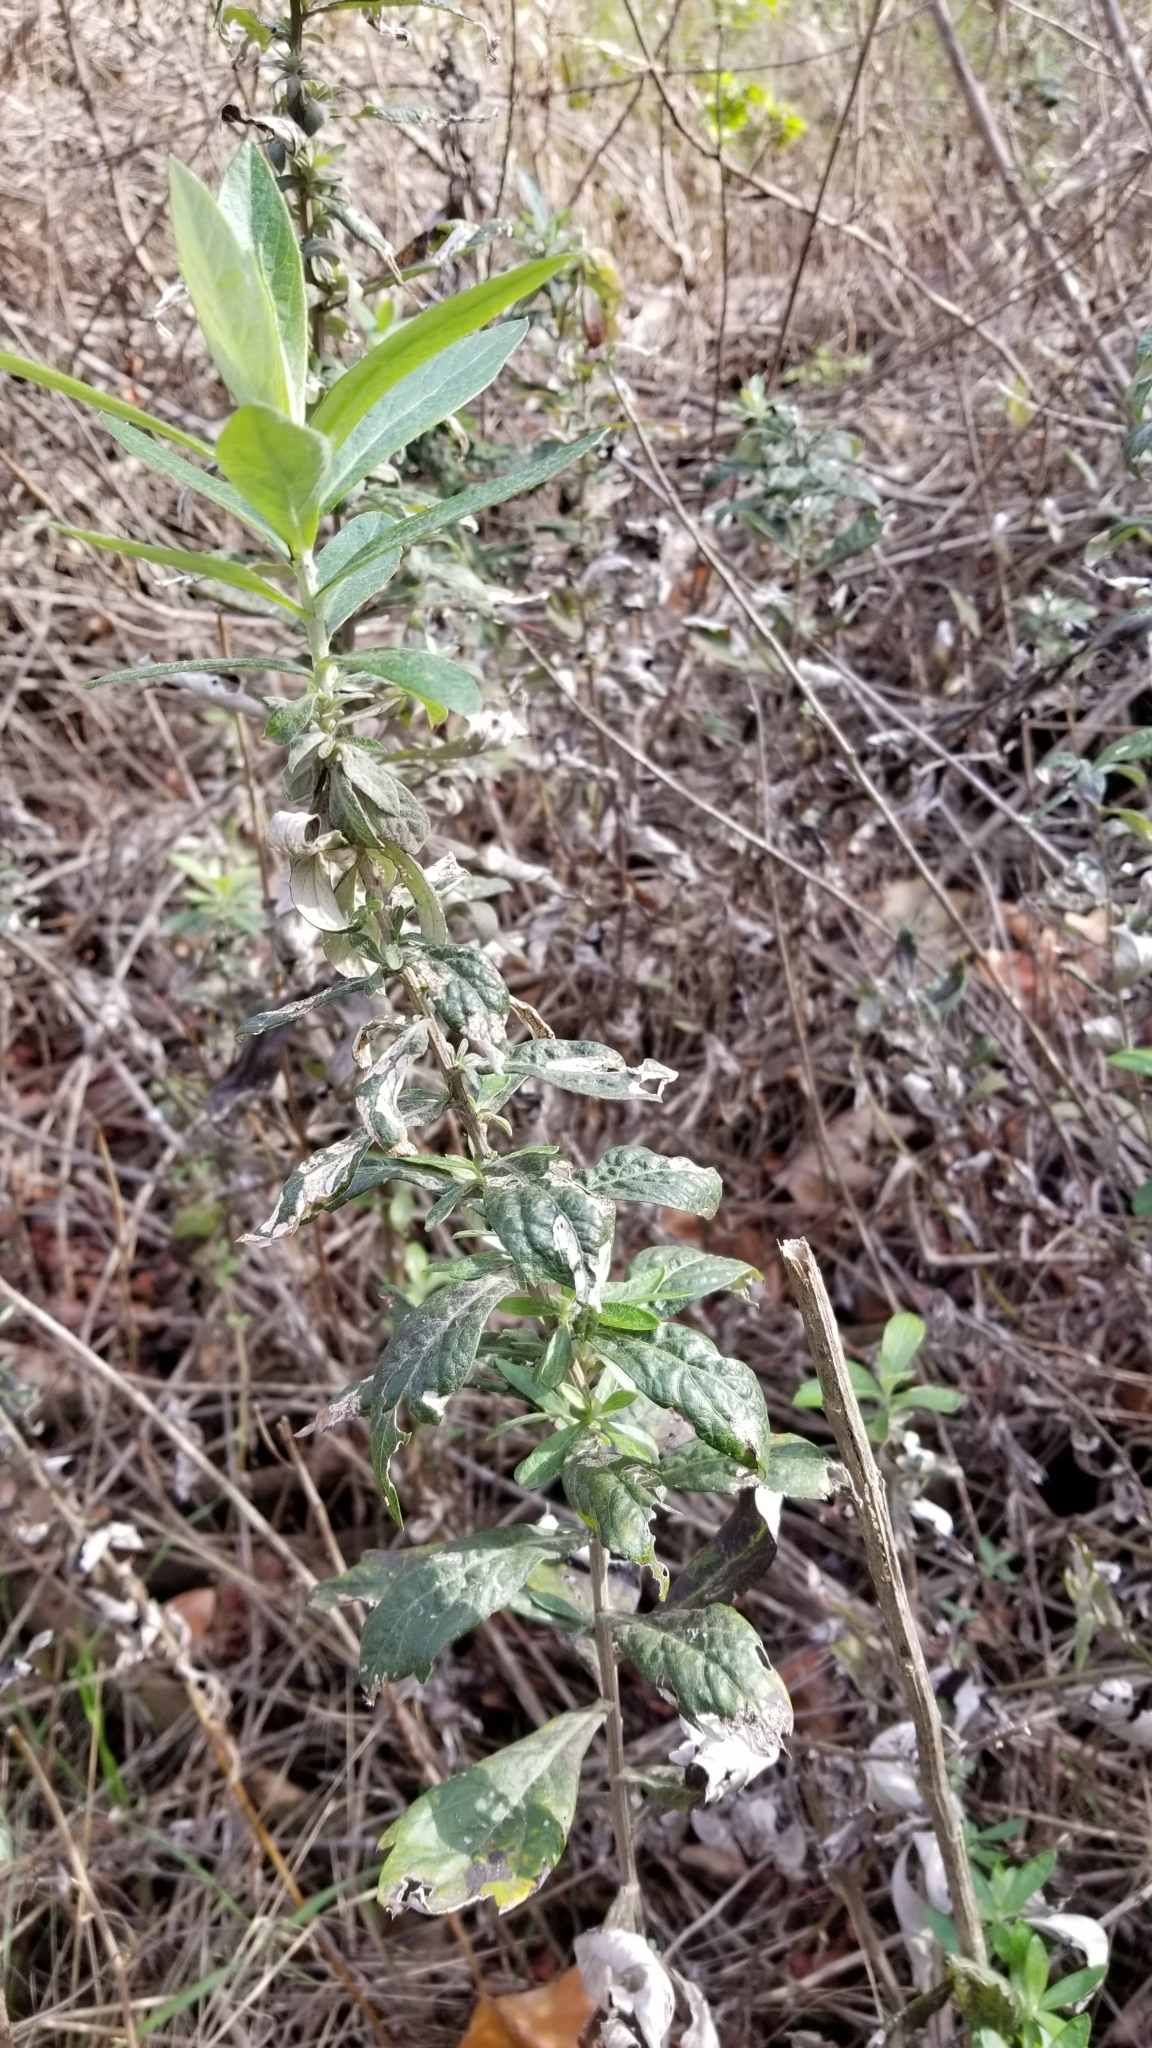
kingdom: Plantae
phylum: Tracheophyta
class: Magnoliopsida
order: Asterales
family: Asteraceae
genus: Artemisia
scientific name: Artemisia douglasiana
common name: Northwest mugwort
